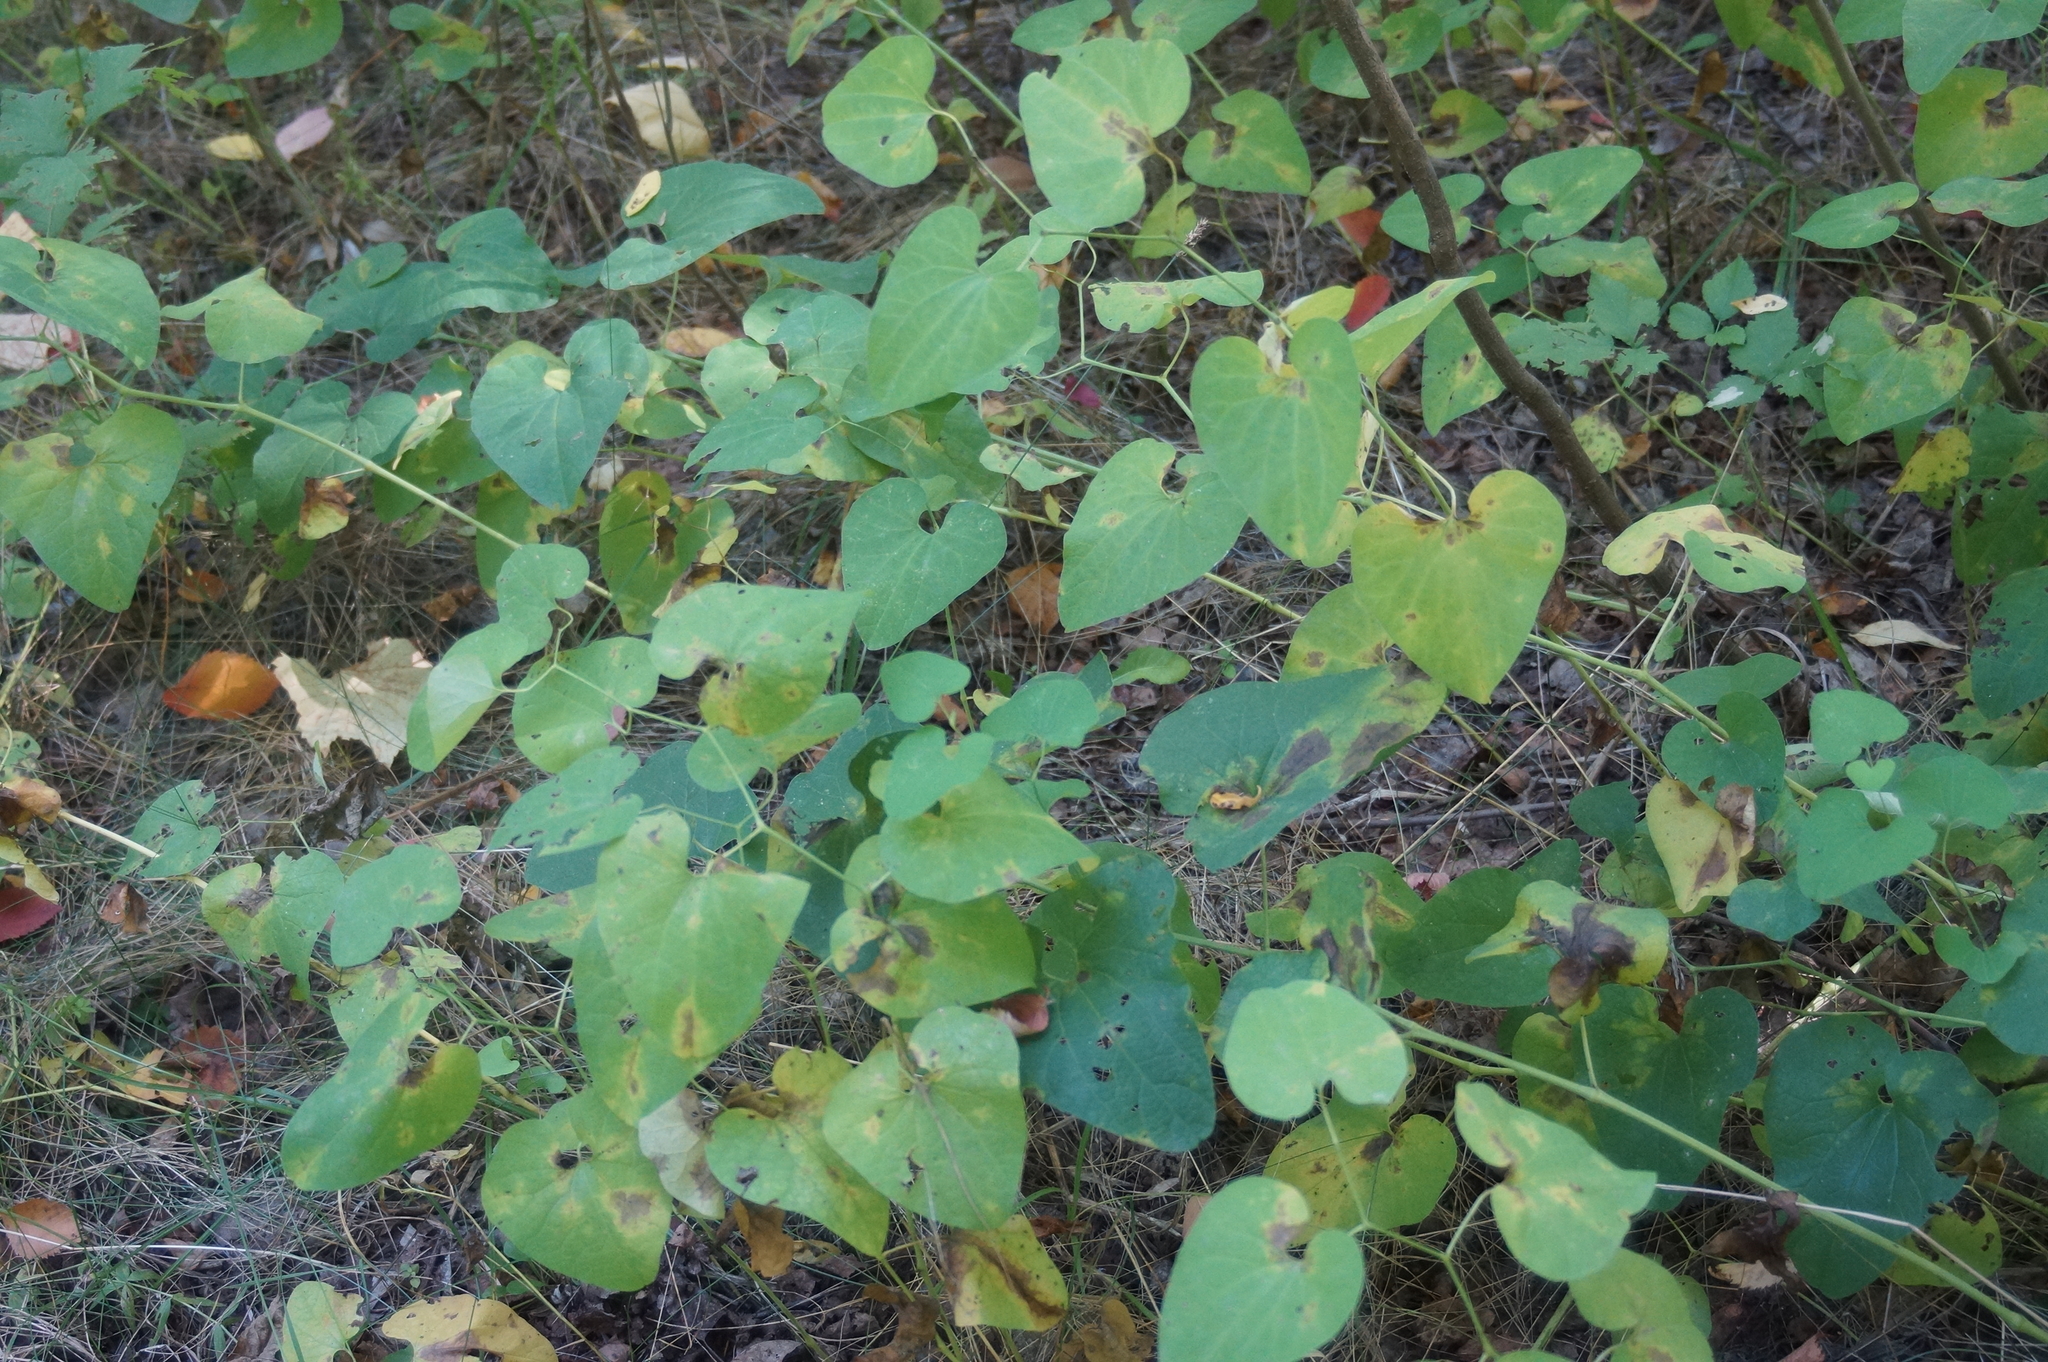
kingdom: Plantae
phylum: Tracheophyta
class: Magnoliopsida
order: Piperales
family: Aristolochiaceae
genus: Aristolochia
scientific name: Aristolochia clematitis
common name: Birthwort
